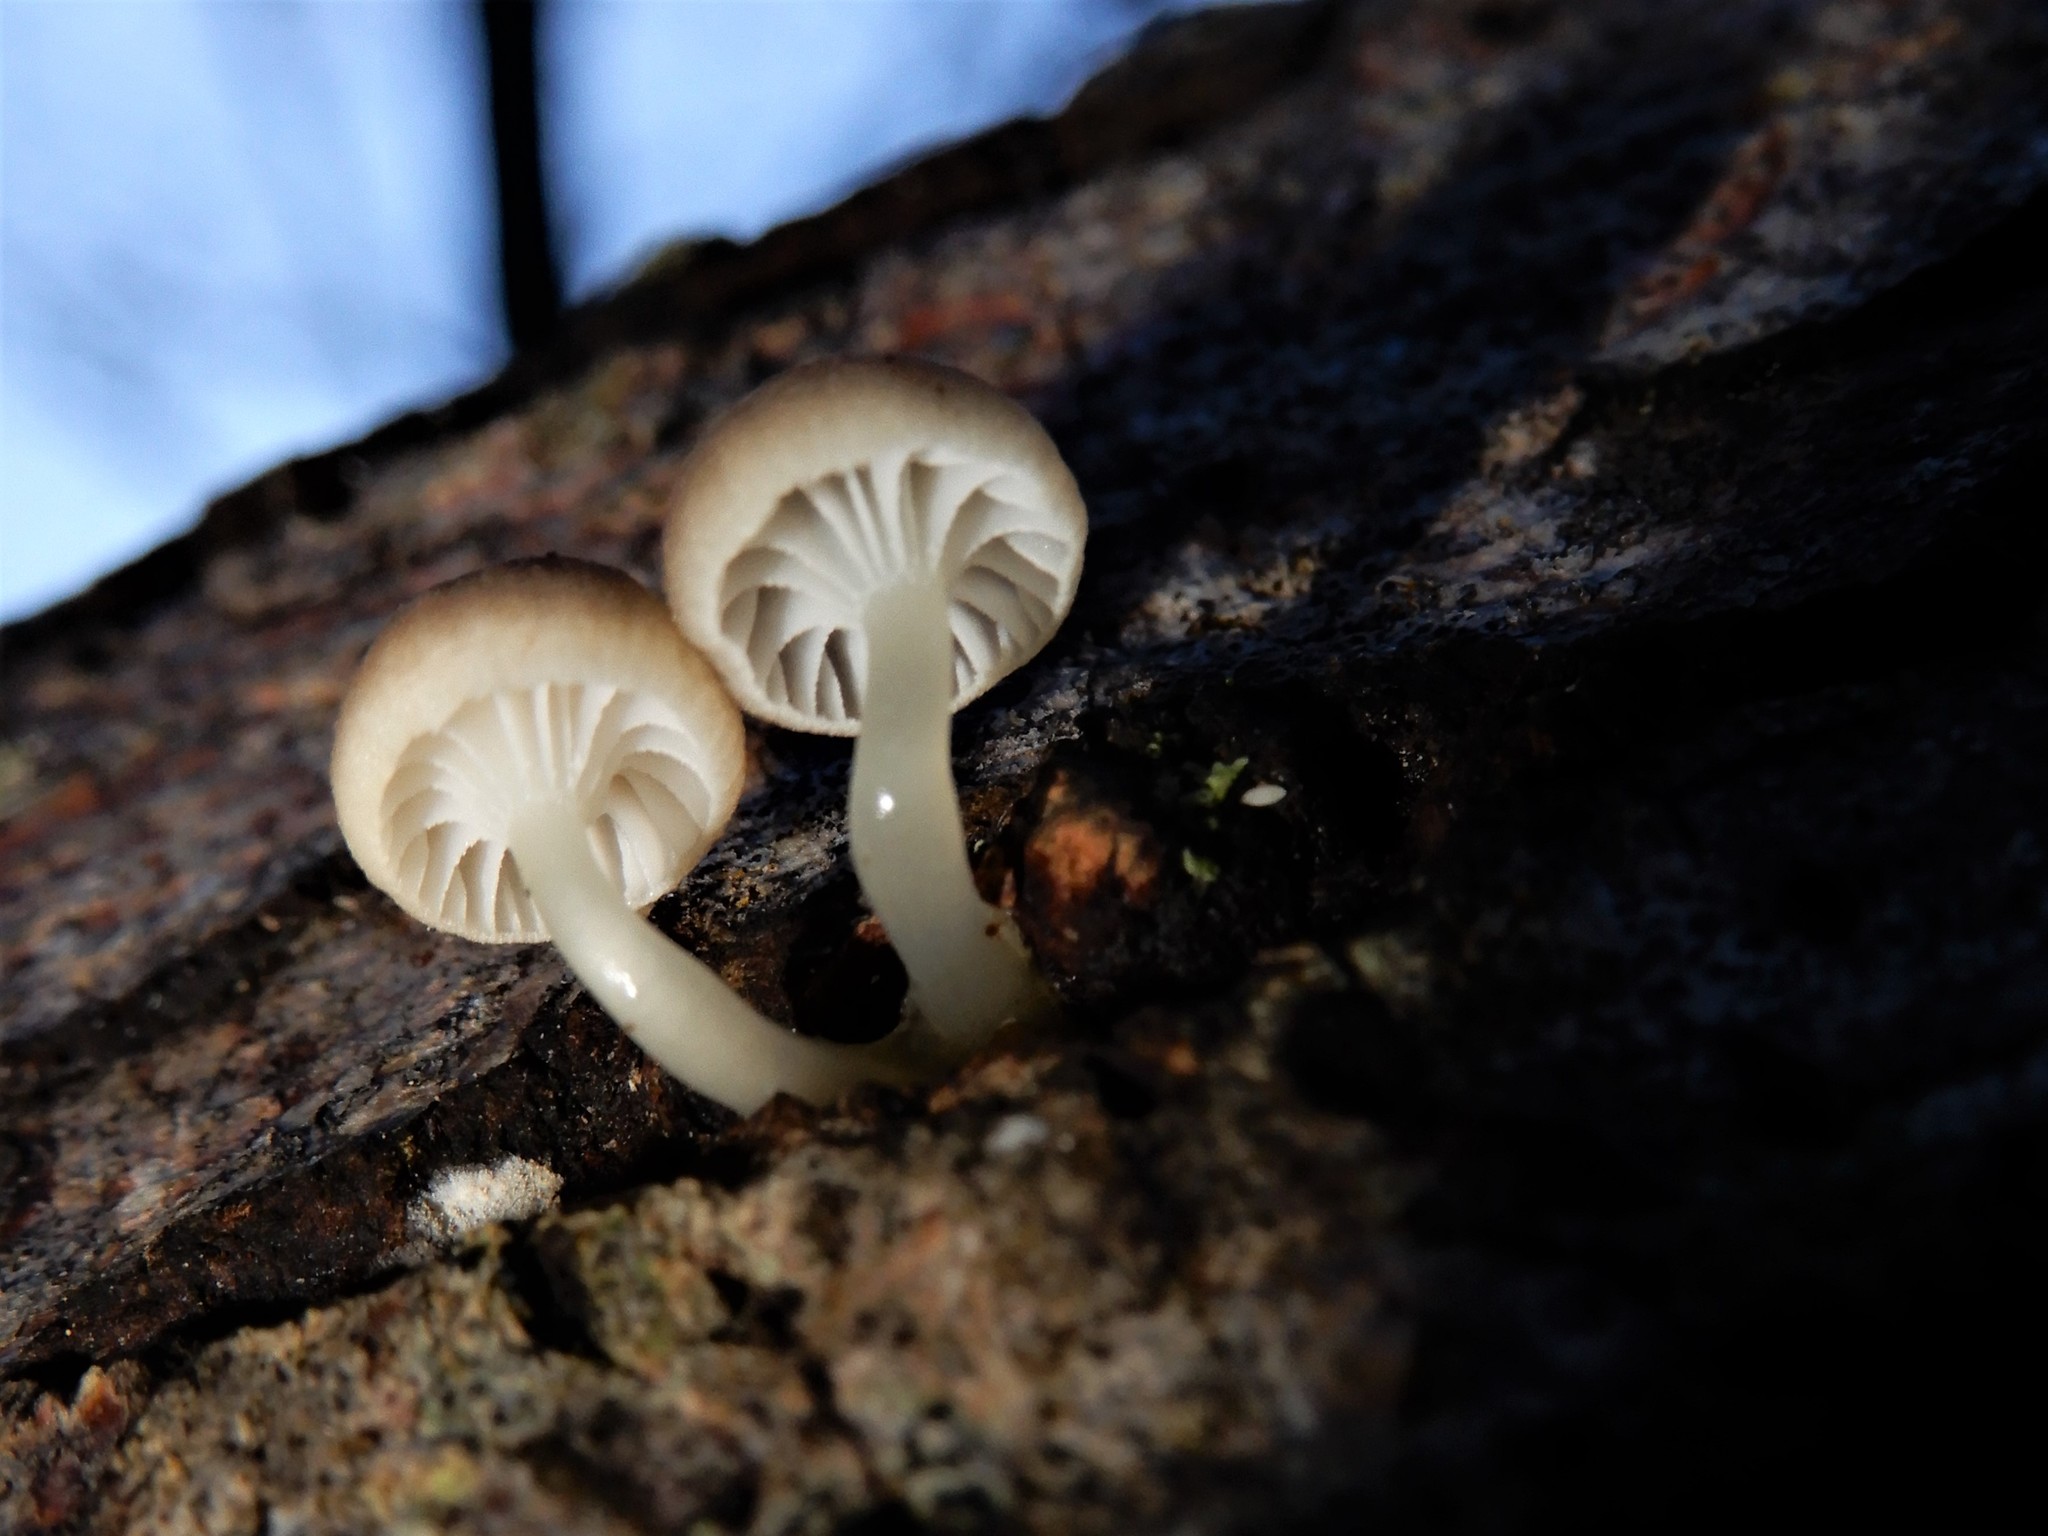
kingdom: Fungi
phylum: Basidiomycota
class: Agaricomycetes
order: Agaricales
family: Mycenaceae
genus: Roridomyces
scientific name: Roridomyces austrororidus
